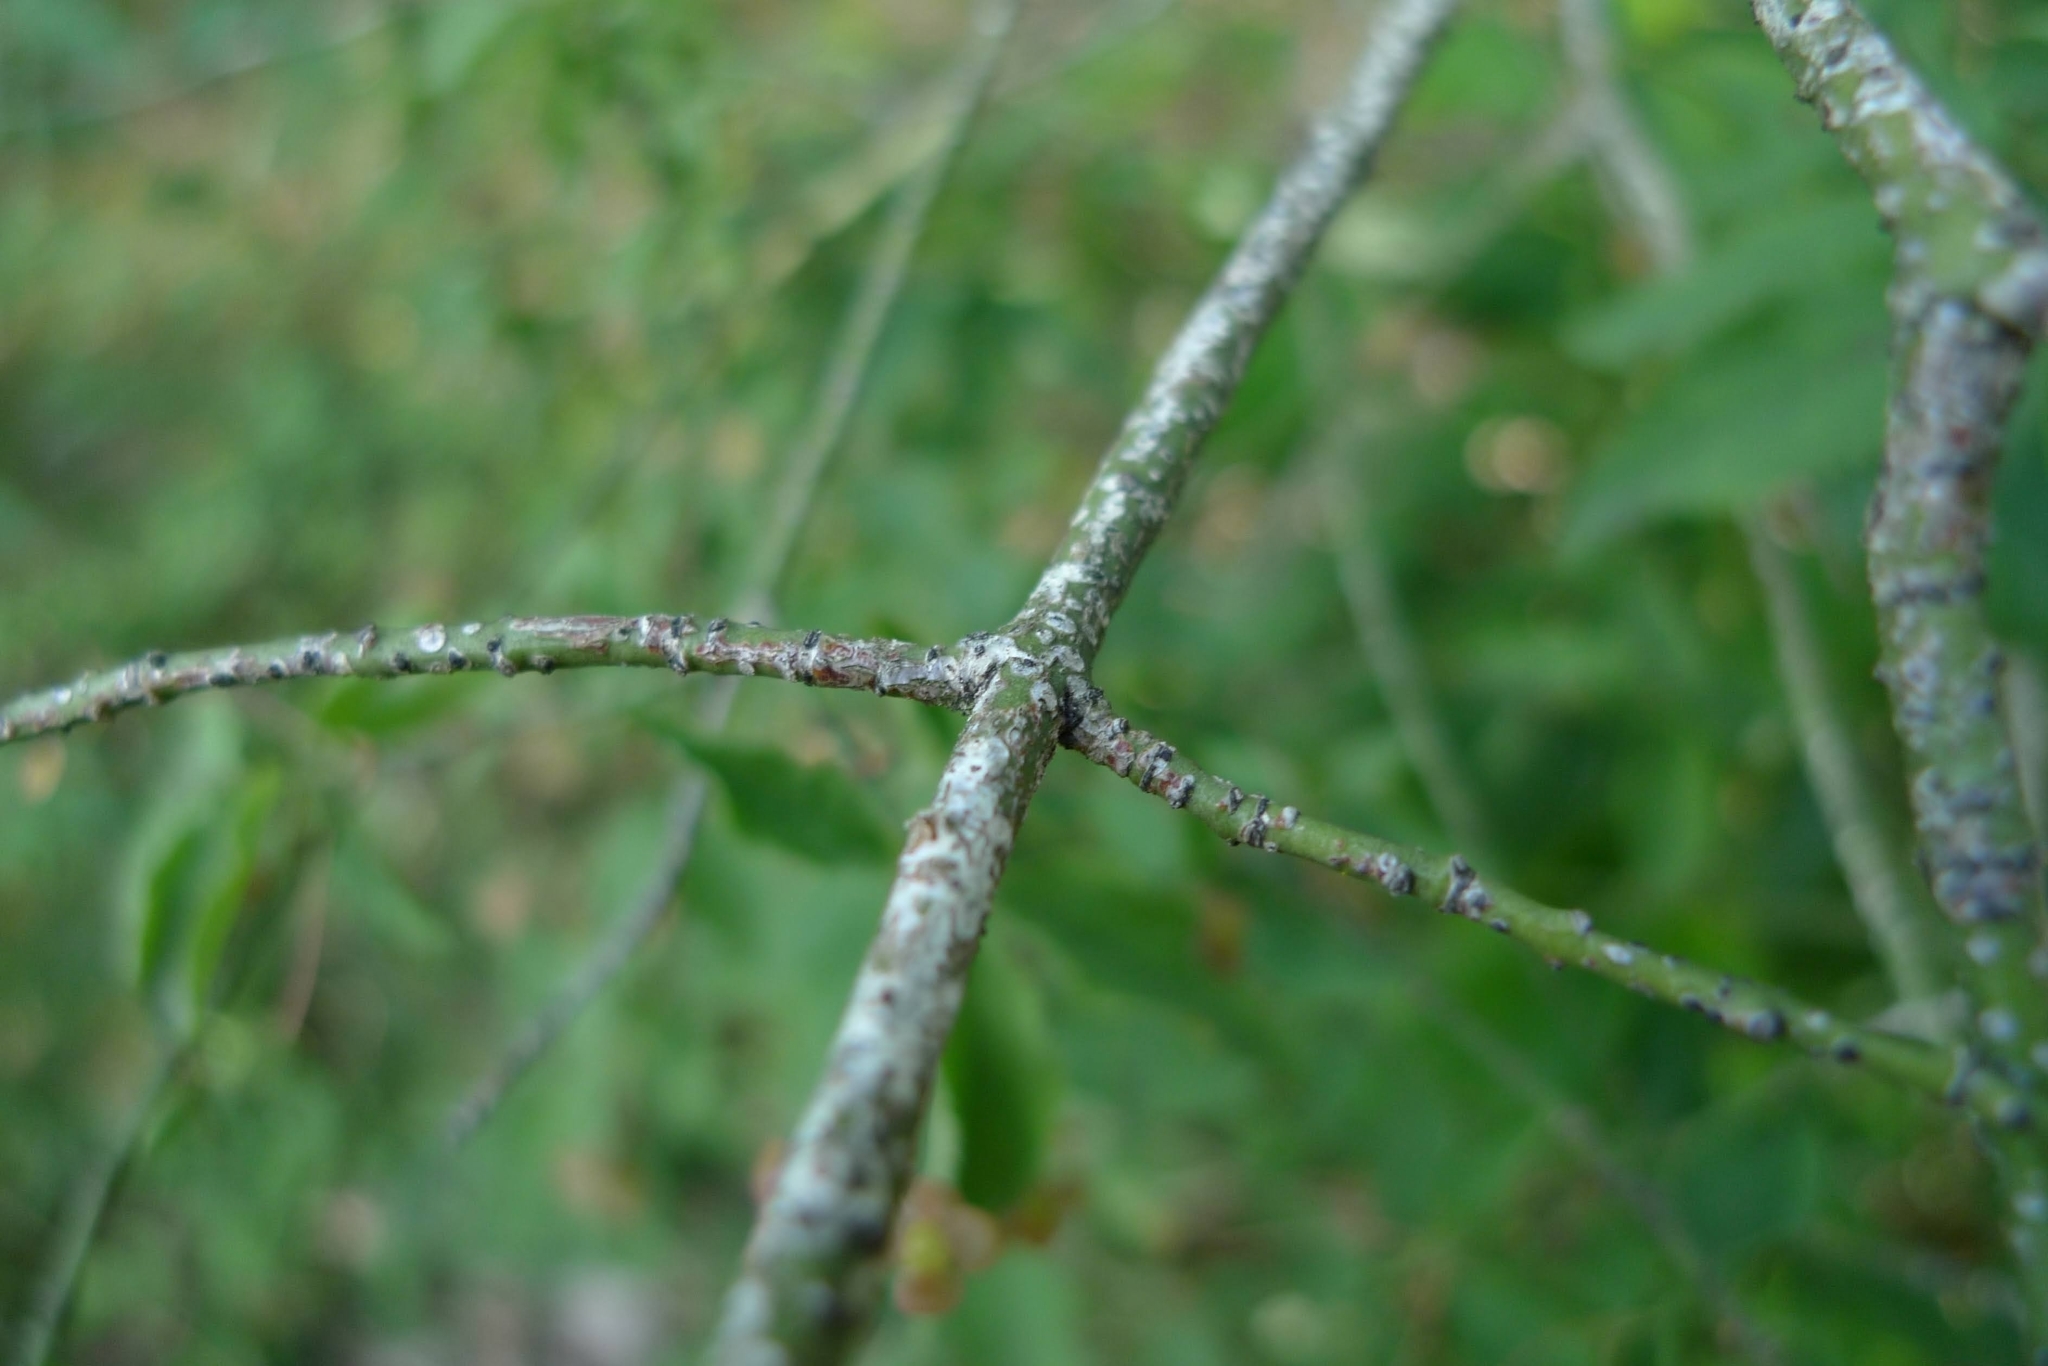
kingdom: Plantae
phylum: Tracheophyta
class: Magnoliopsida
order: Celastrales
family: Celastraceae
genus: Euonymus
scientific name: Euonymus verrucosus
